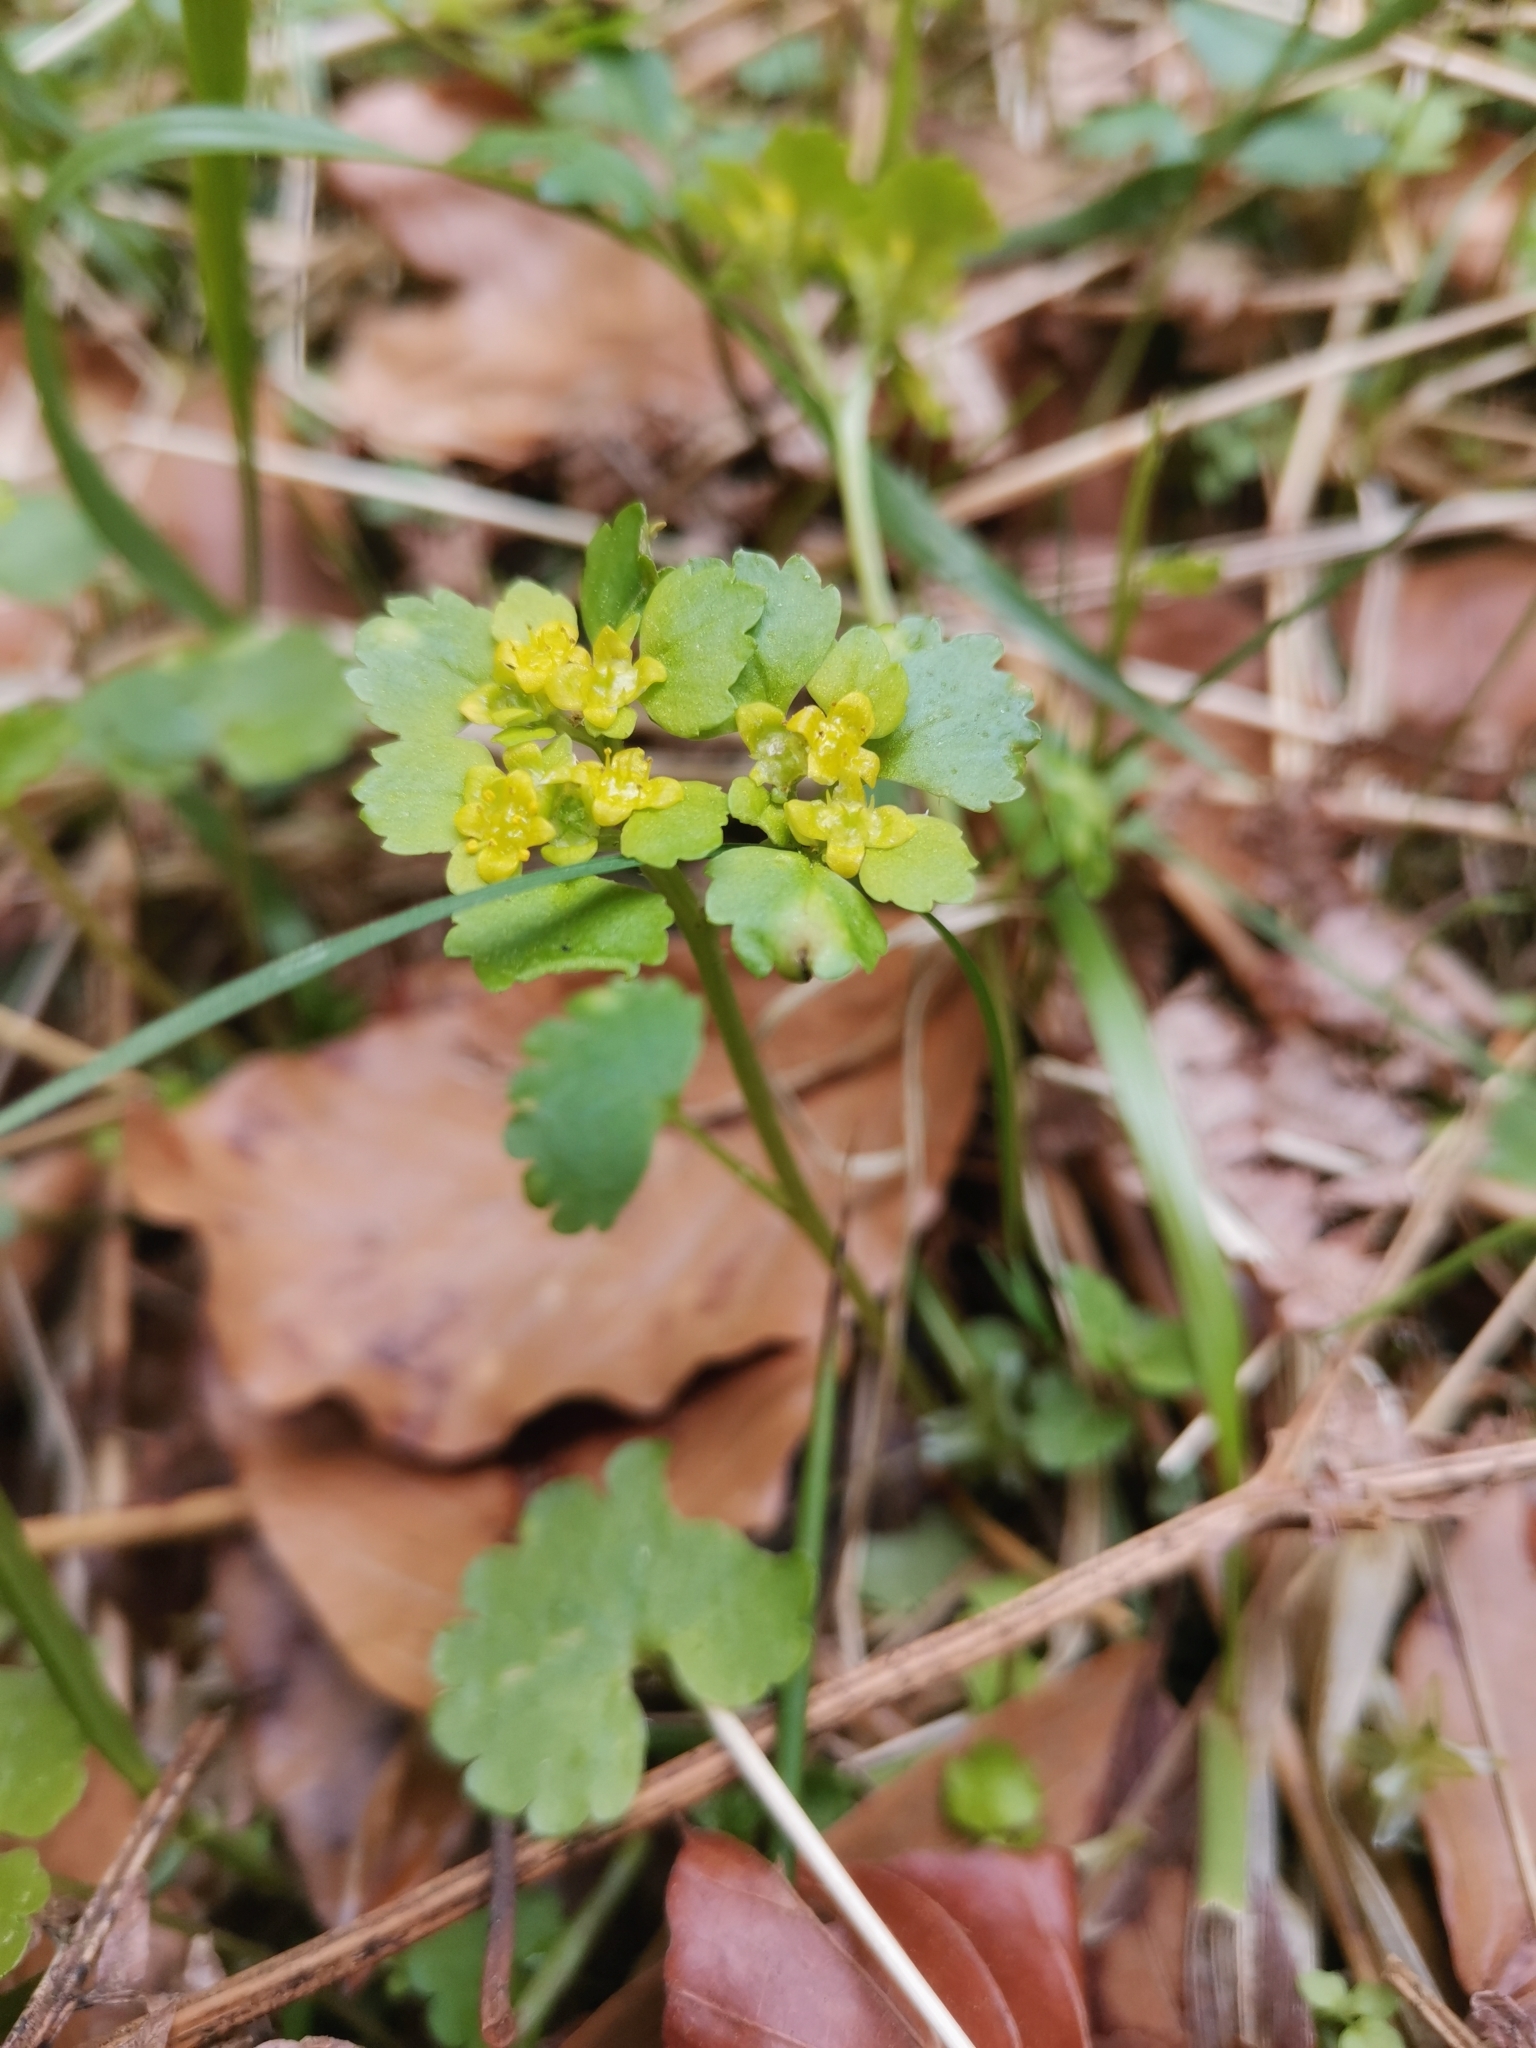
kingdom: Plantae
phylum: Tracheophyta
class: Magnoliopsida
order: Saxifragales
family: Saxifragaceae
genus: Chrysosplenium
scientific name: Chrysosplenium alternifolium
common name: Alternate-leaved golden-saxifrage
